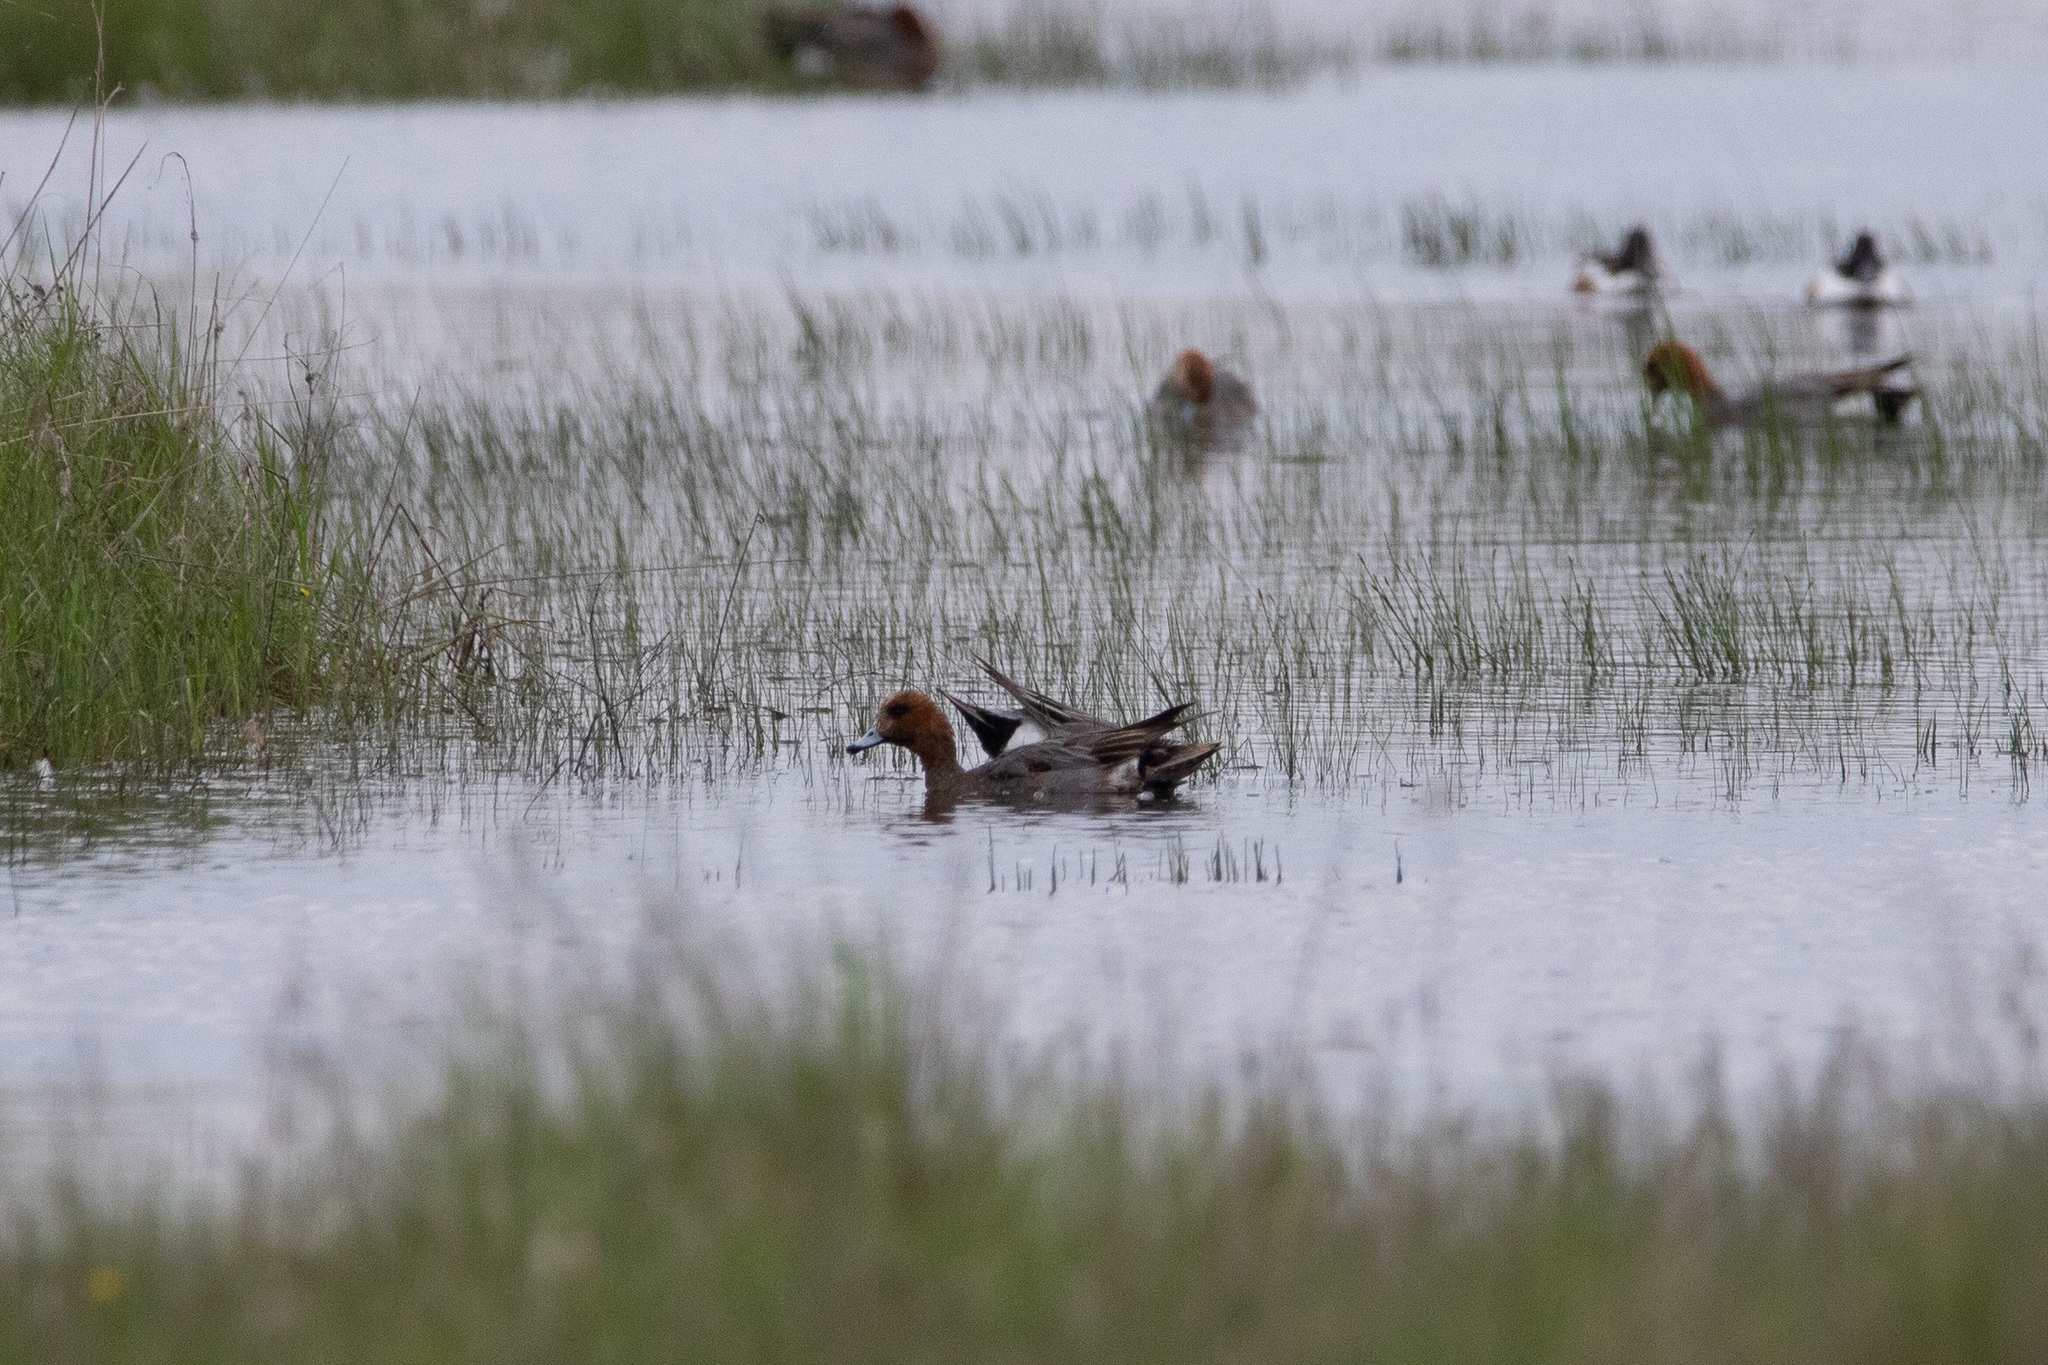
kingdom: Animalia
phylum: Chordata
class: Aves
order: Anseriformes
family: Anatidae
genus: Mareca
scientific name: Mareca penelope
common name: Eurasian wigeon
